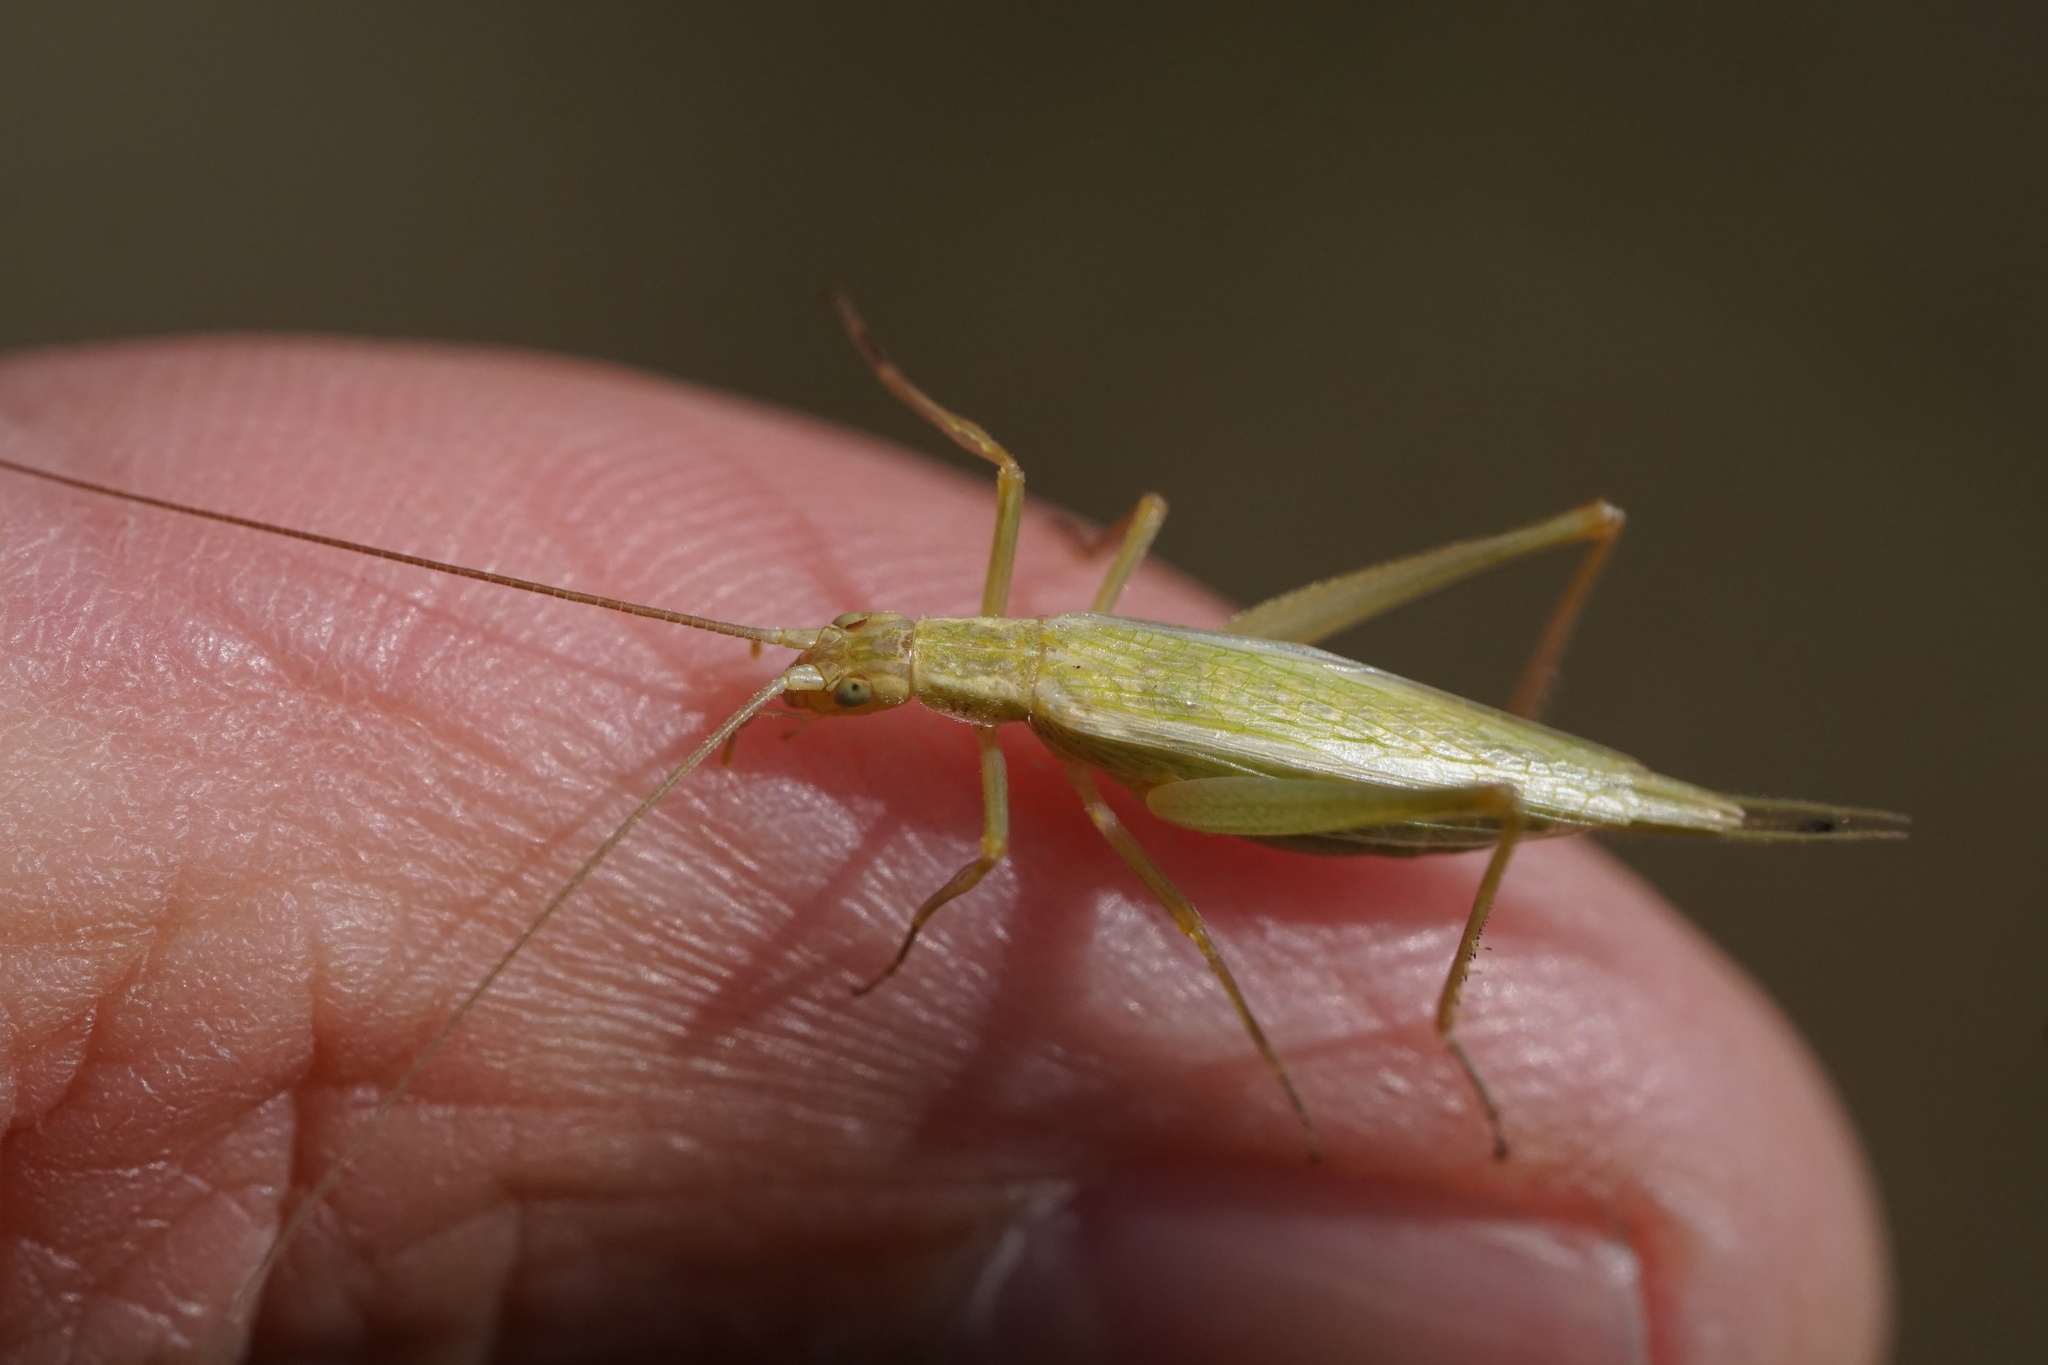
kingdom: Animalia
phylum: Arthropoda
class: Insecta
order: Orthoptera
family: Gryllidae
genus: Oecanthus
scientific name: Oecanthus quadripunctatus
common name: Four-spotted tree cricket
